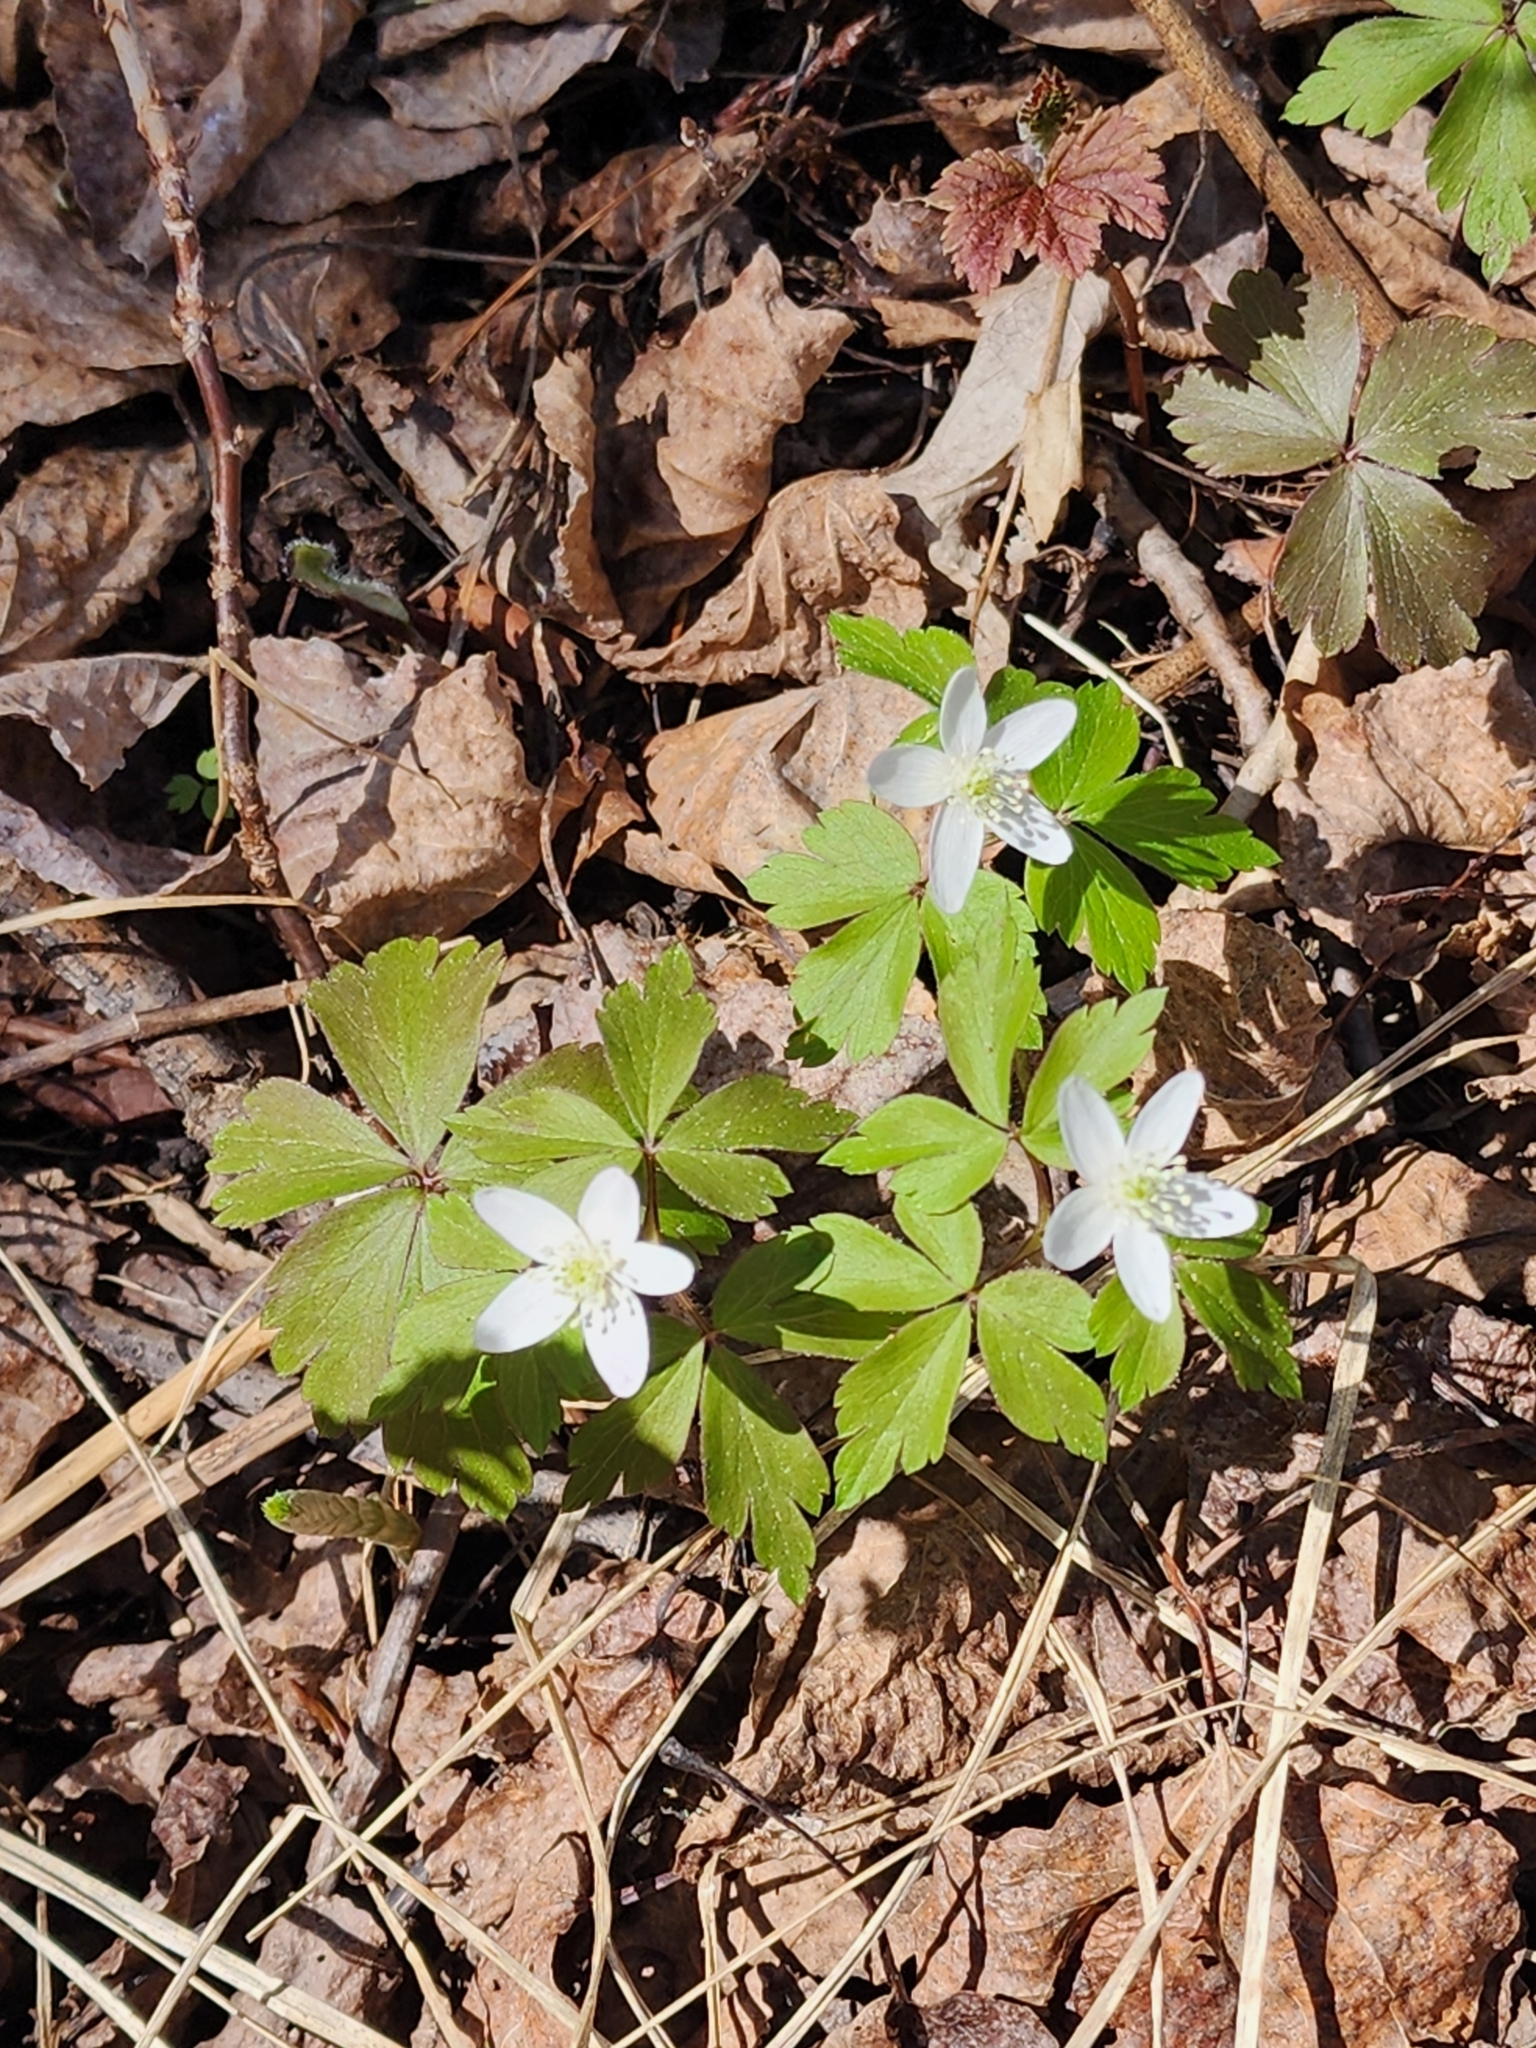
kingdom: Plantae
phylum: Tracheophyta
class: Magnoliopsida
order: Ranunculales
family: Ranunculaceae
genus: Anemone
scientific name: Anemone quinquefolia
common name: Wood anemone
